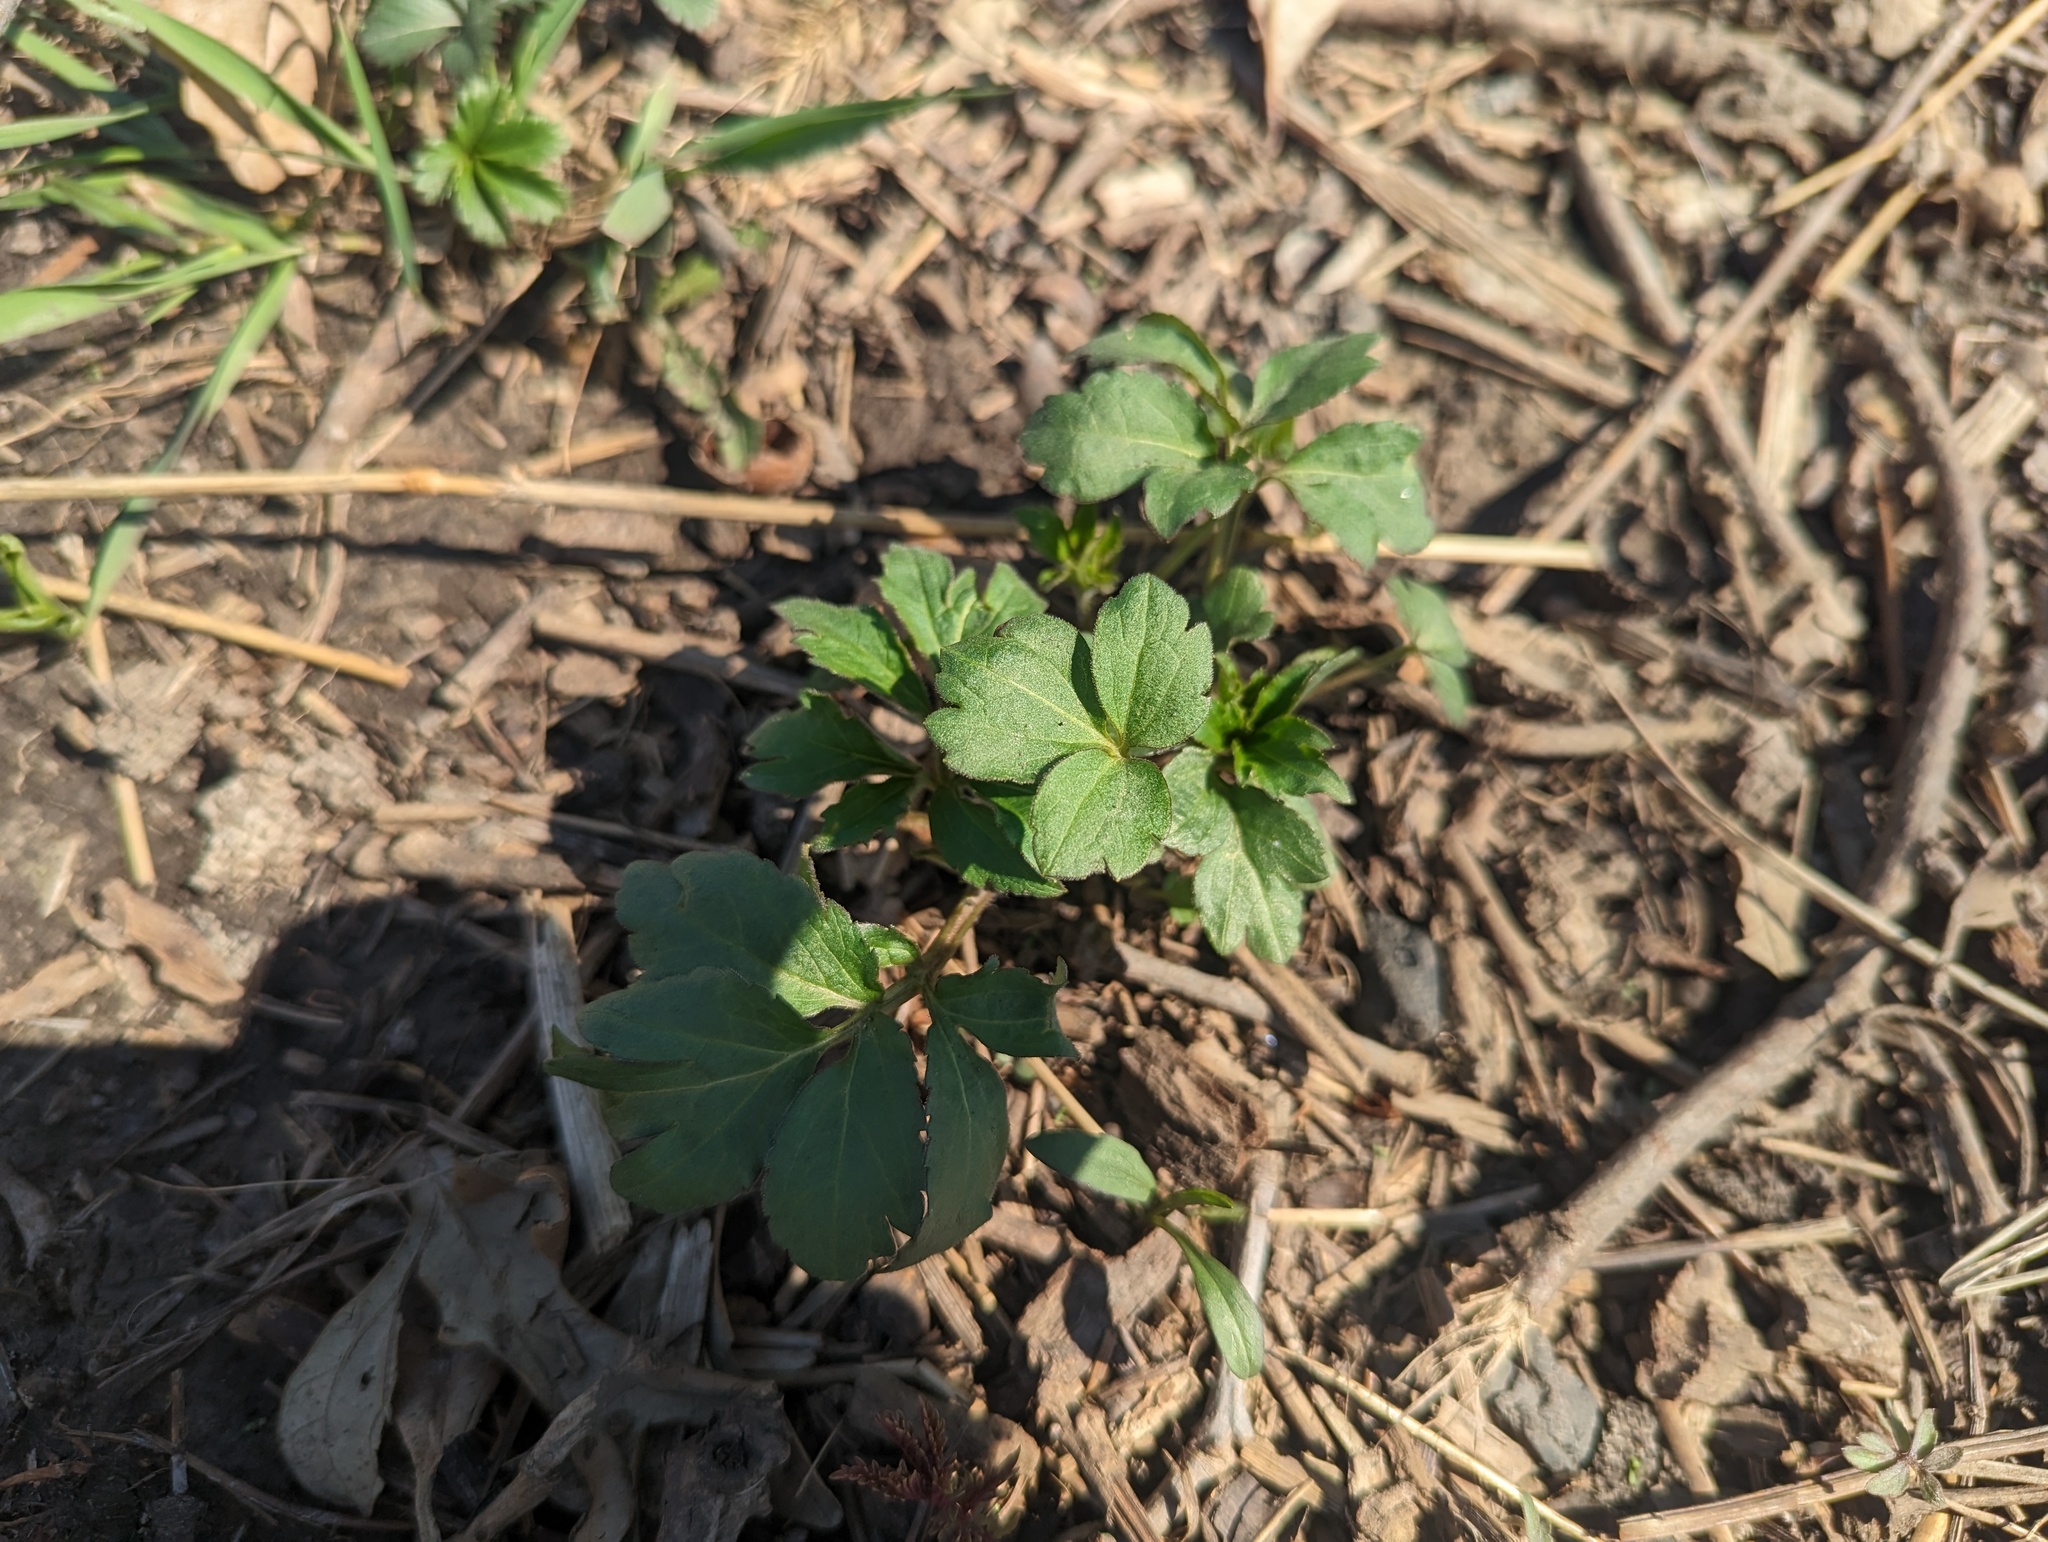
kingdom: Plantae
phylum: Tracheophyta
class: Magnoliopsida
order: Asterales
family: Asteraceae
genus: Rudbeckia
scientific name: Rudbeckia laciniata
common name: Coneflower
